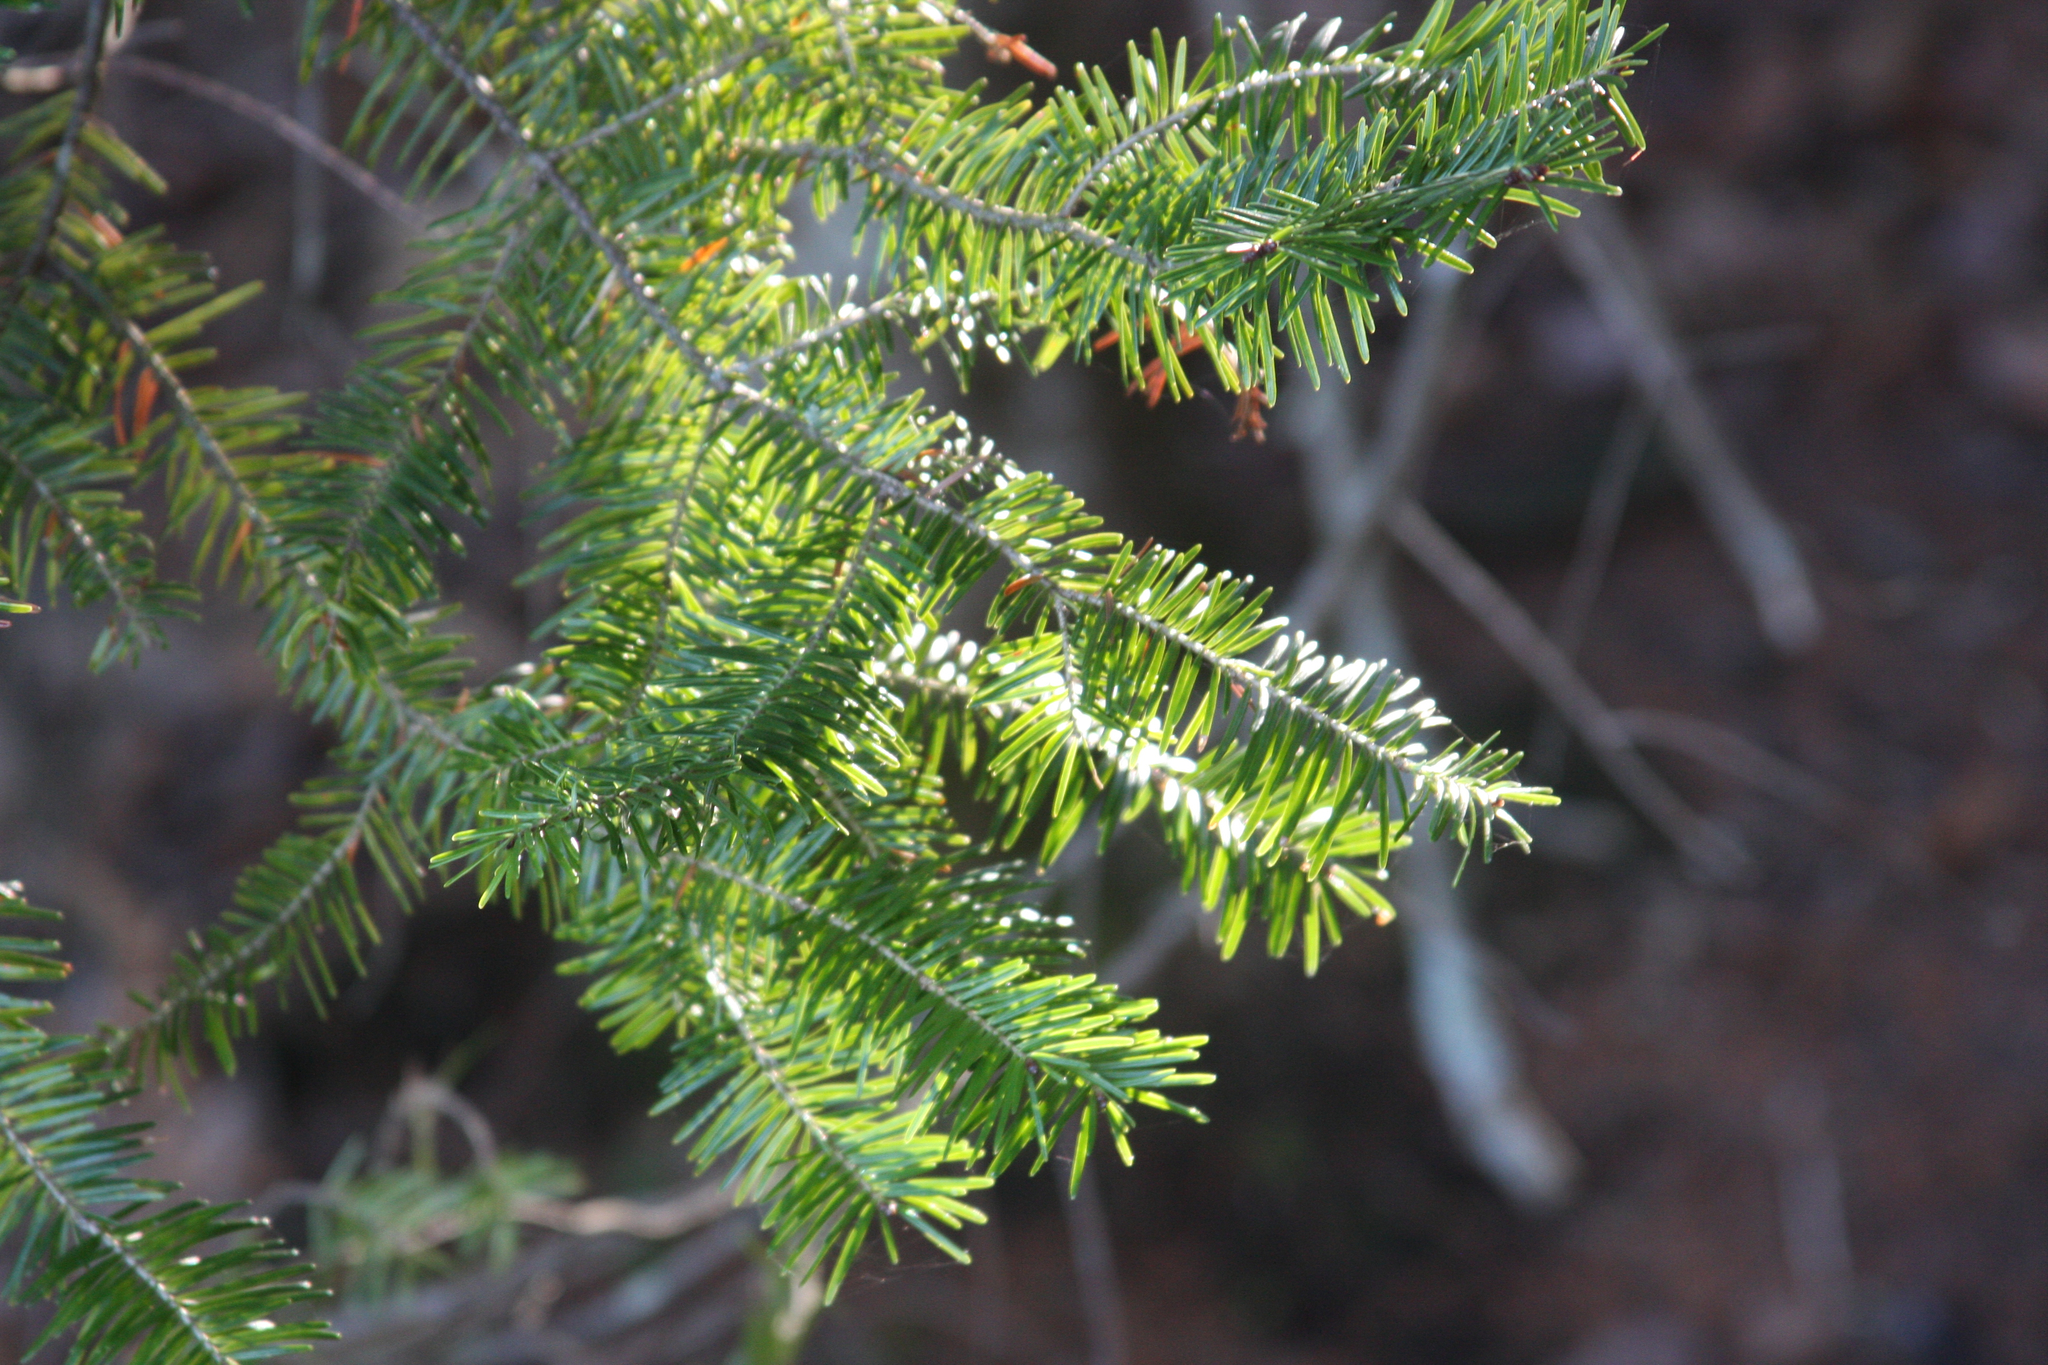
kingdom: Plantae
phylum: Tracheophyta
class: Pinopsida
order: Pinales
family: Pinaceae
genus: Abies
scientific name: Abies balsamea
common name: Balsam fir
